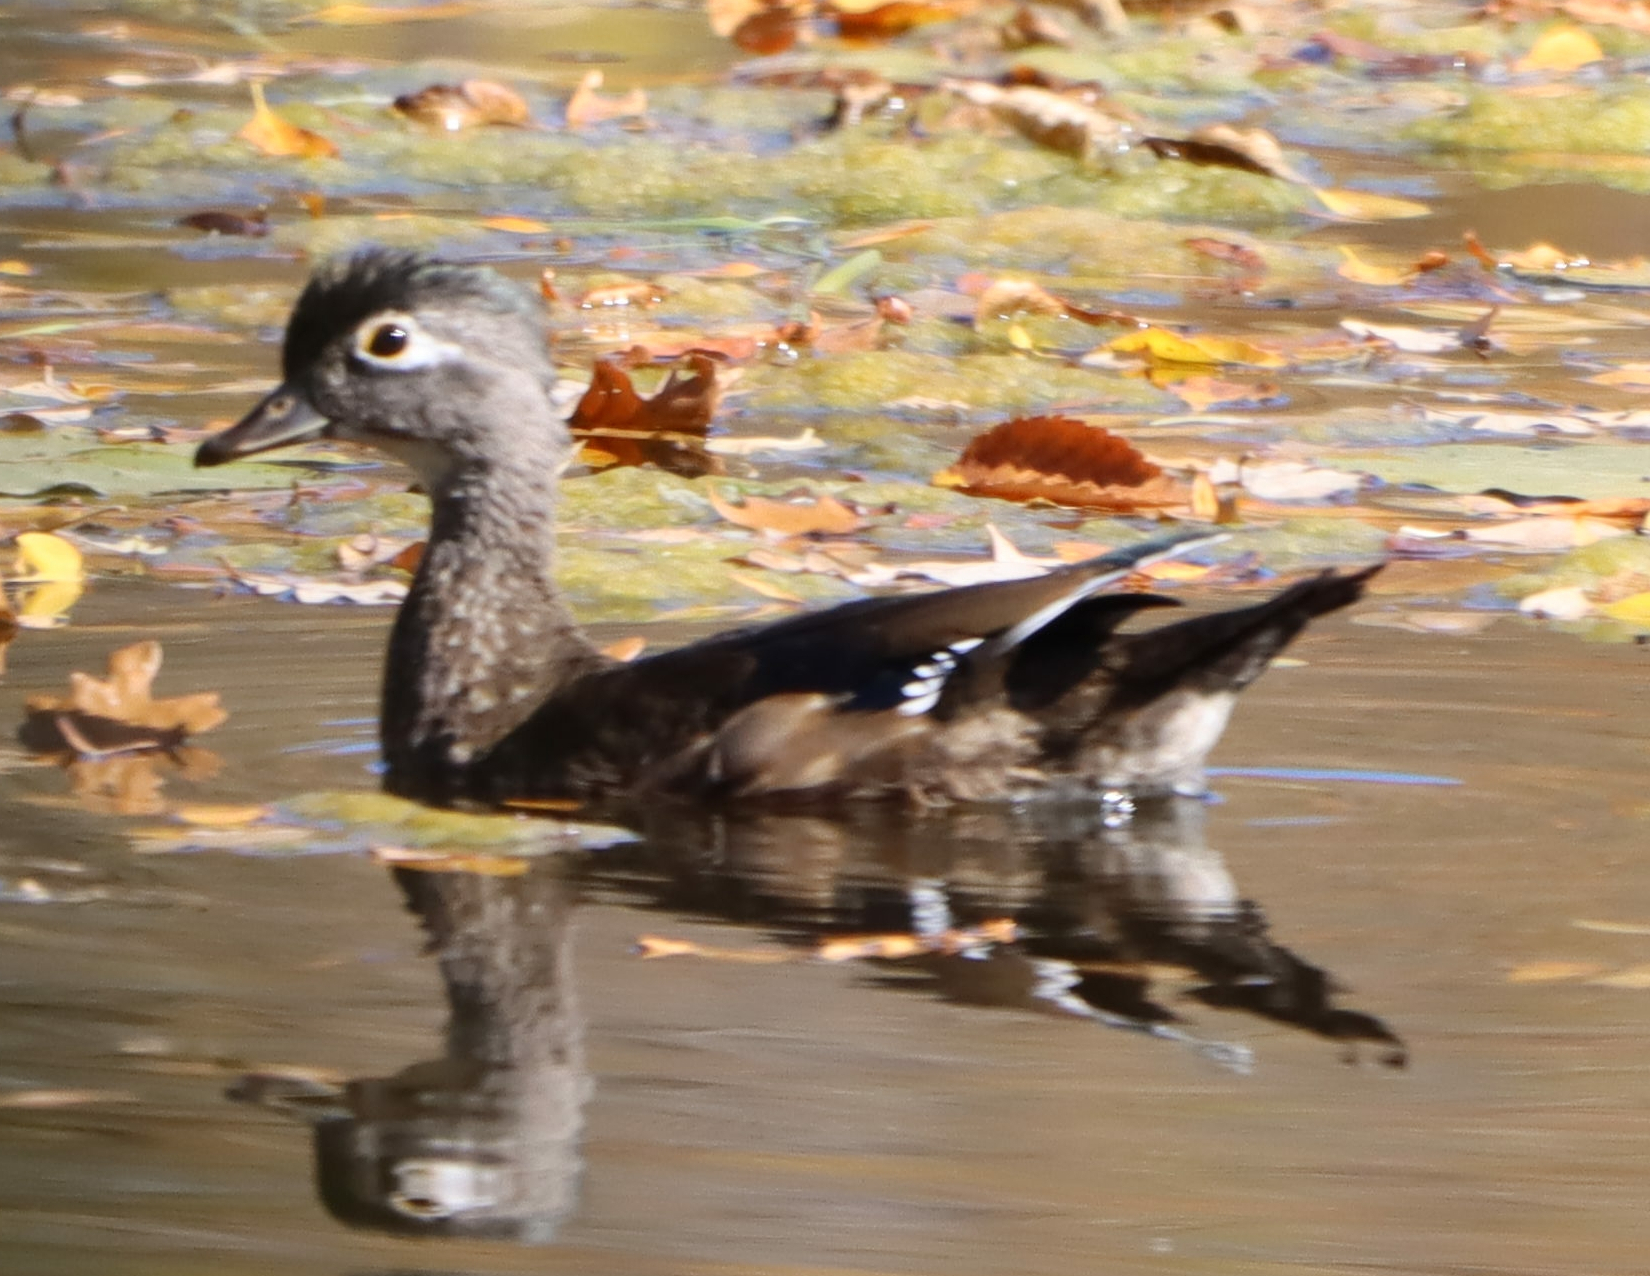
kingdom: Animalia
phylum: Chordata
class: Aves
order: Anseriformes
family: Anatidae
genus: Aix
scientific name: Aix sponsa
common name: Wood duck
